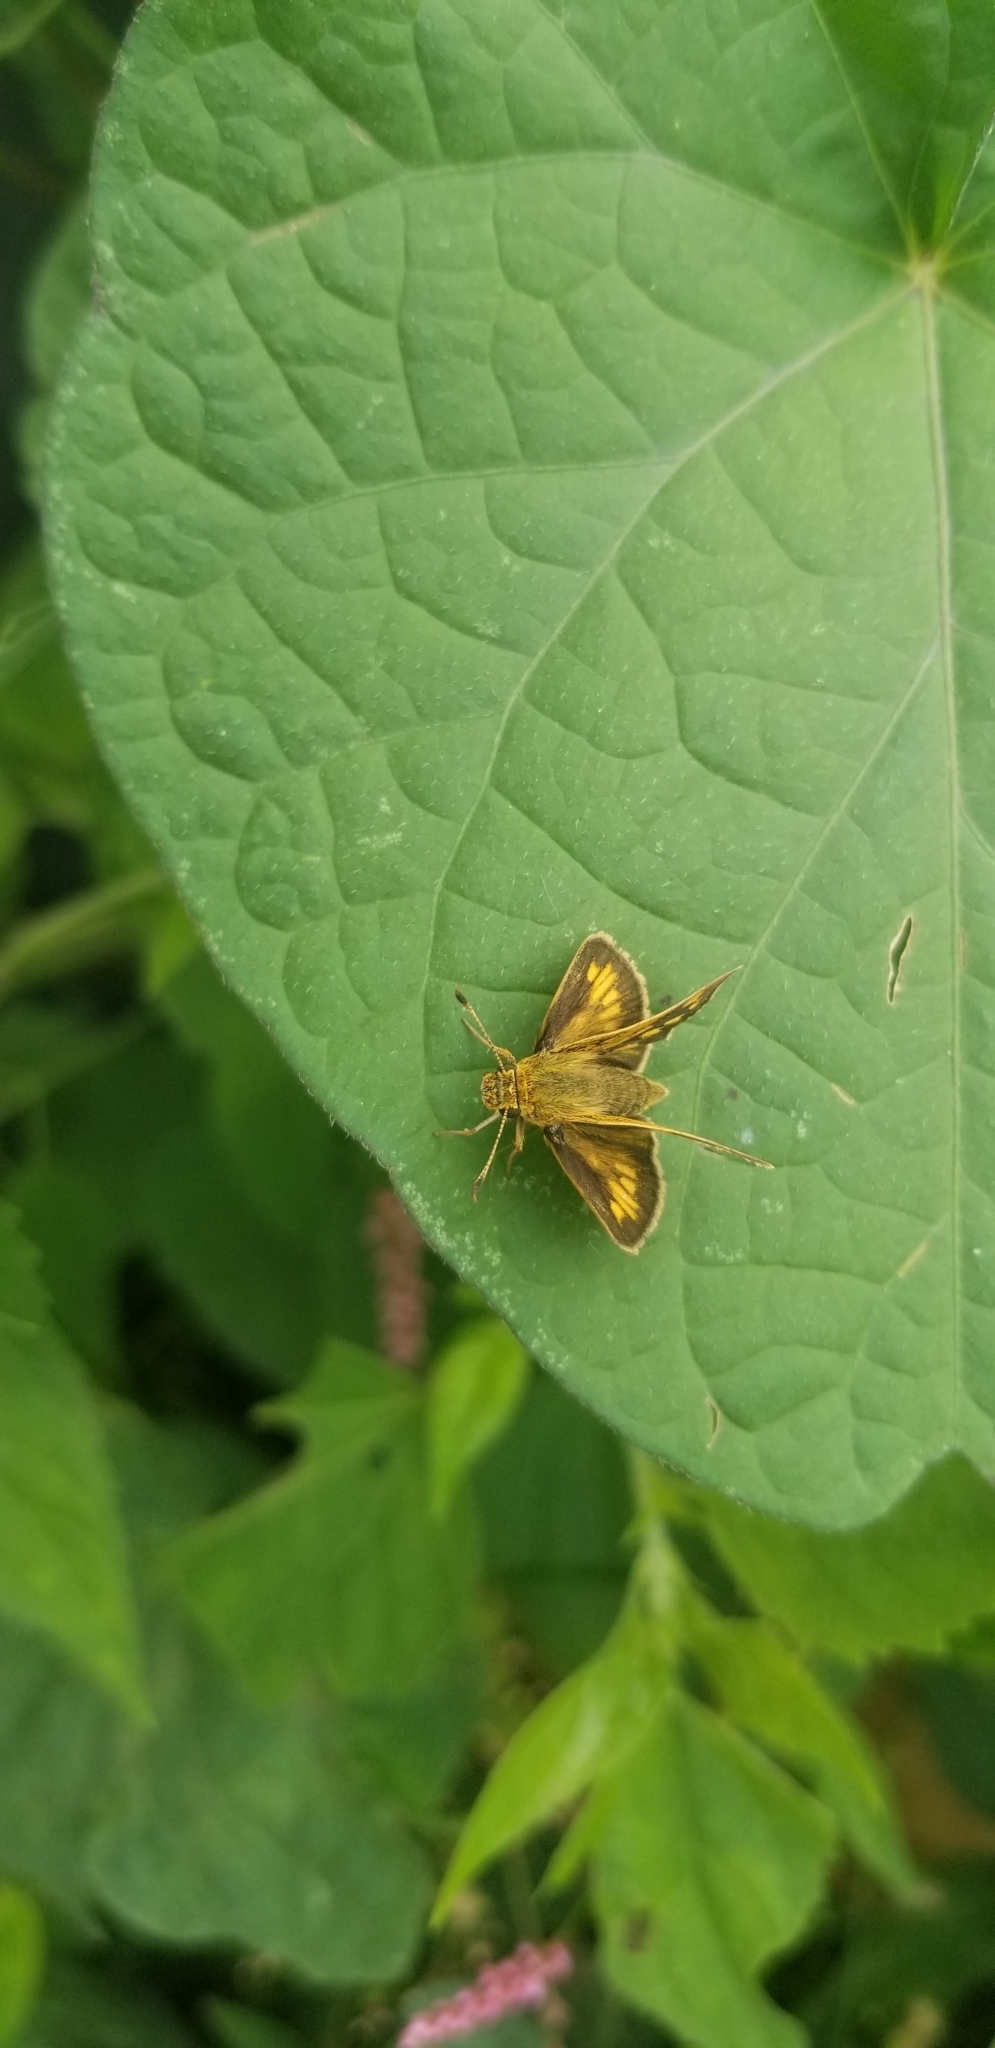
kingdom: Animalia
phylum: Arthropoda
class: Insecta
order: Lepidoptera
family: Hesperiidae
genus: Polites
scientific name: Polites coras
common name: Peck's skipper
